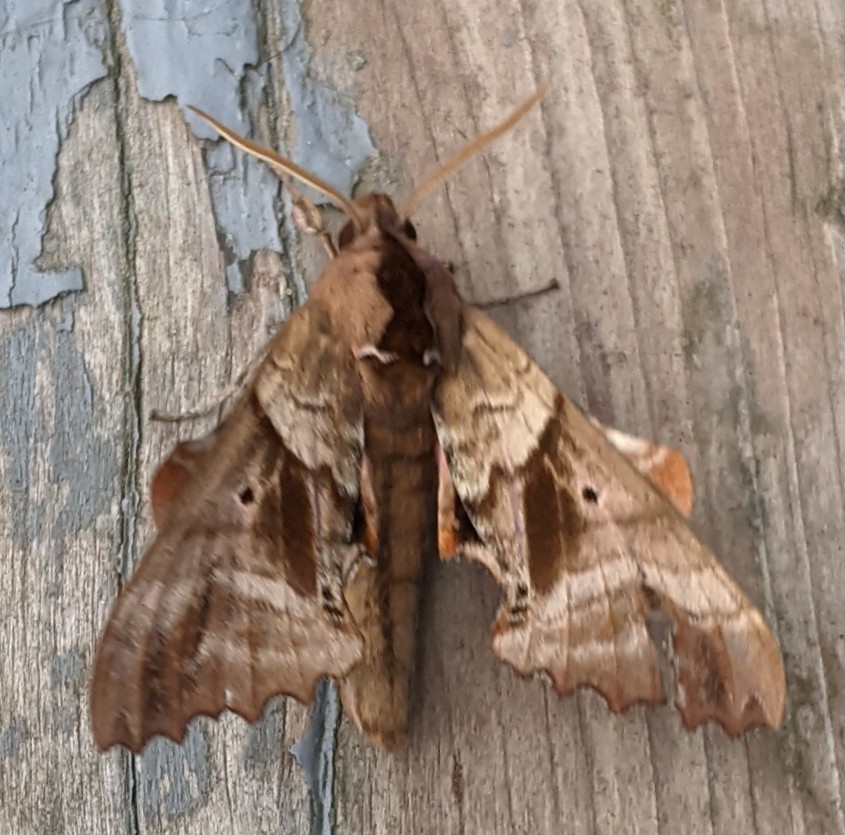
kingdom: Animalia
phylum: Arthropoda
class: Insecta
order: Lepidoptera
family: Sphingidae
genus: Paonias
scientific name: Paonias excaecata
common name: Blind-eyed sphinx
